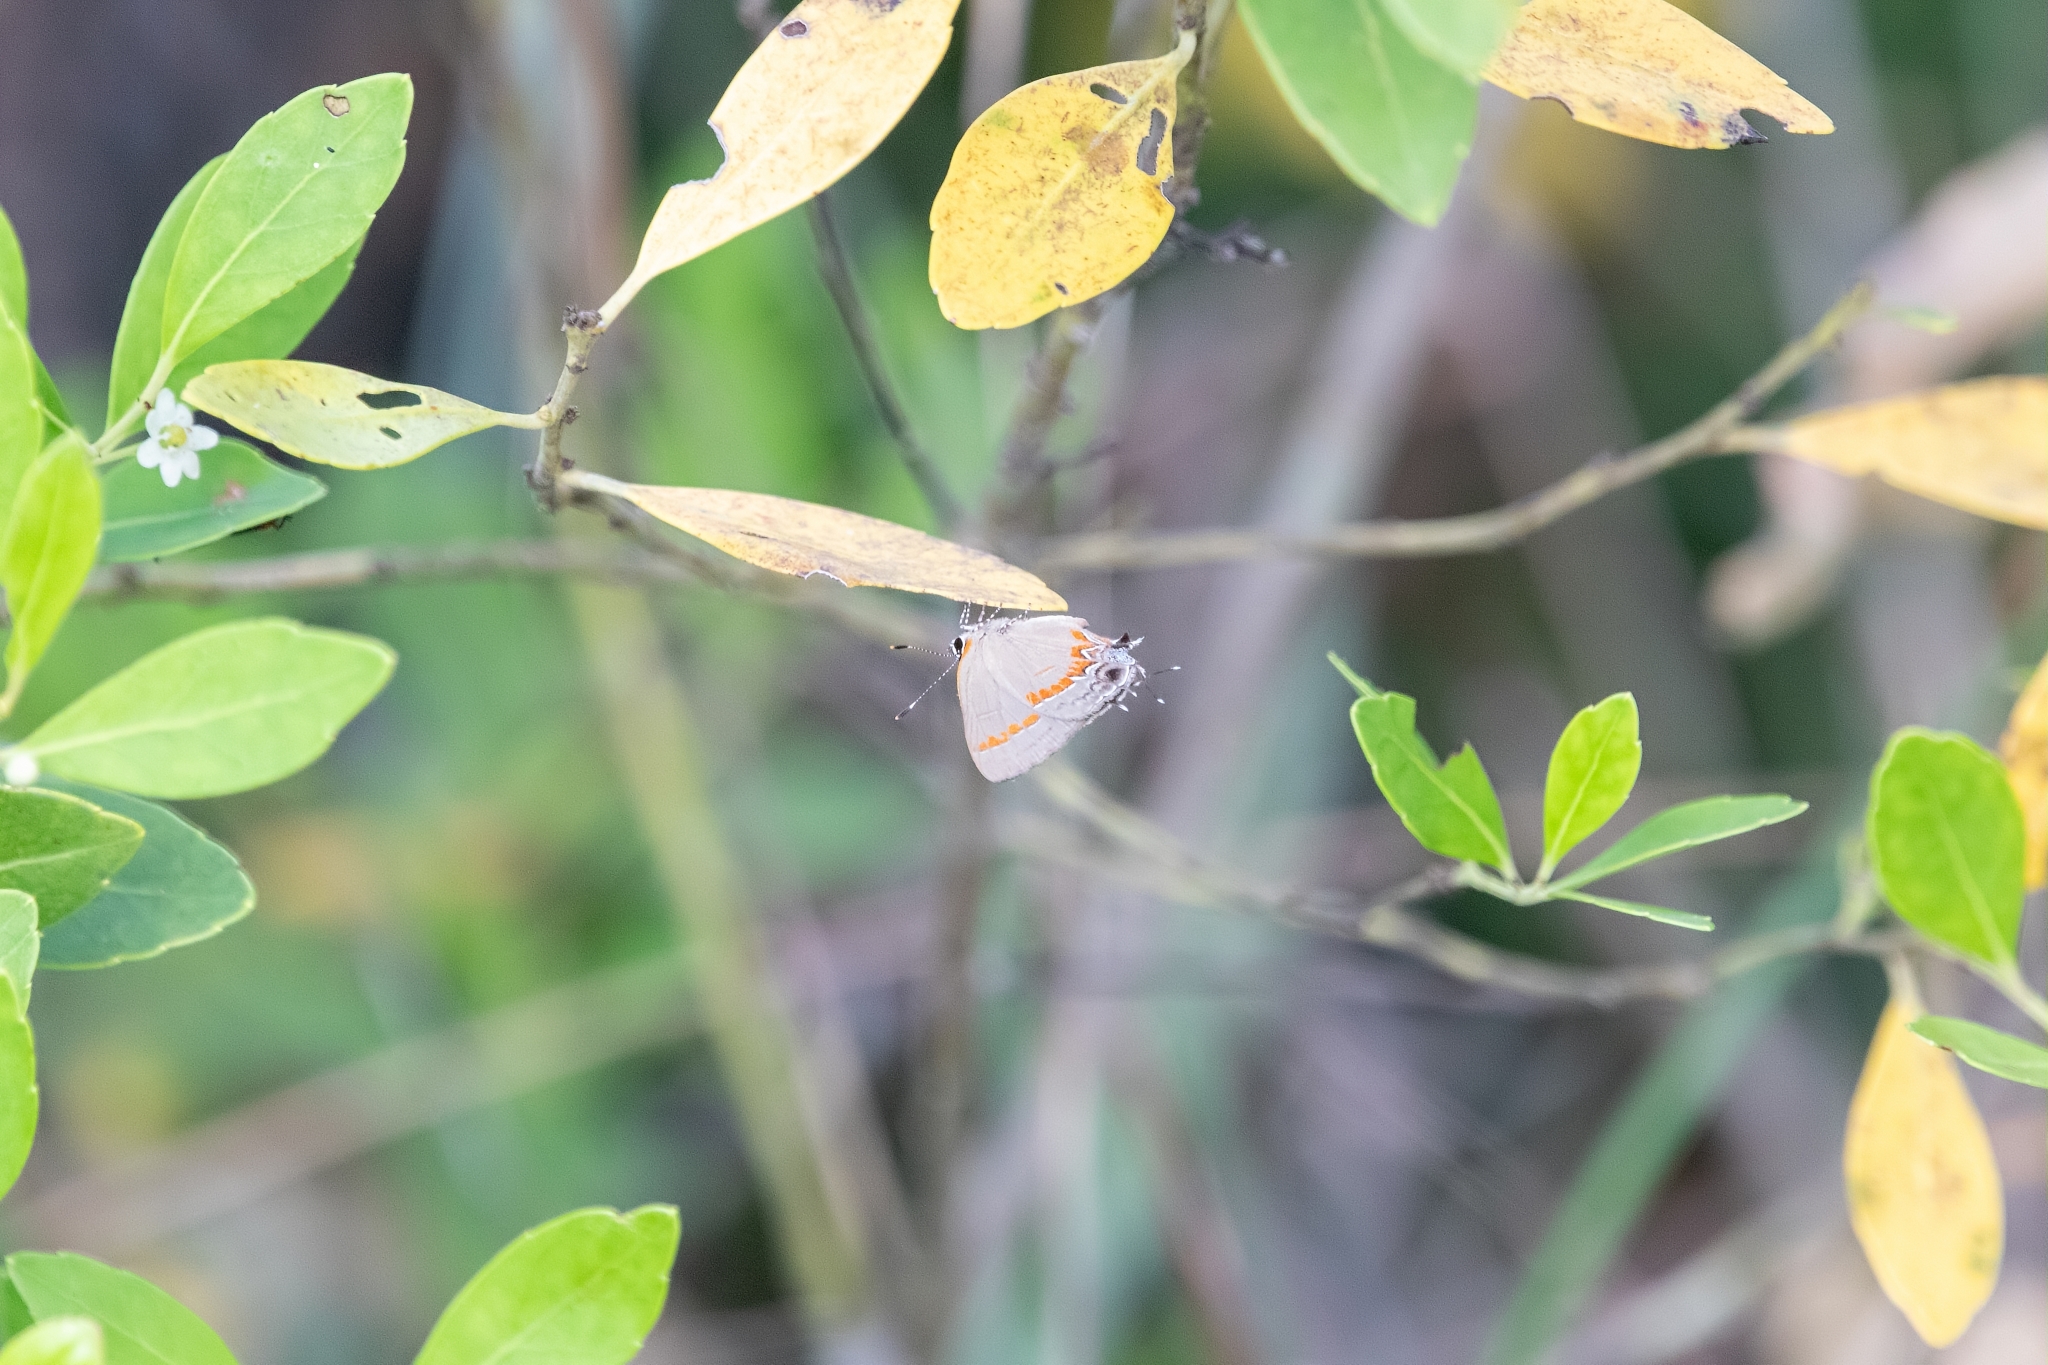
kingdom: Animalia
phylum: Arthropoda
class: Insecta
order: Lepidoptera
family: Lycaenidae
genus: Calycopis
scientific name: Calycopis cecrops
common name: Red-banded hairstreak
